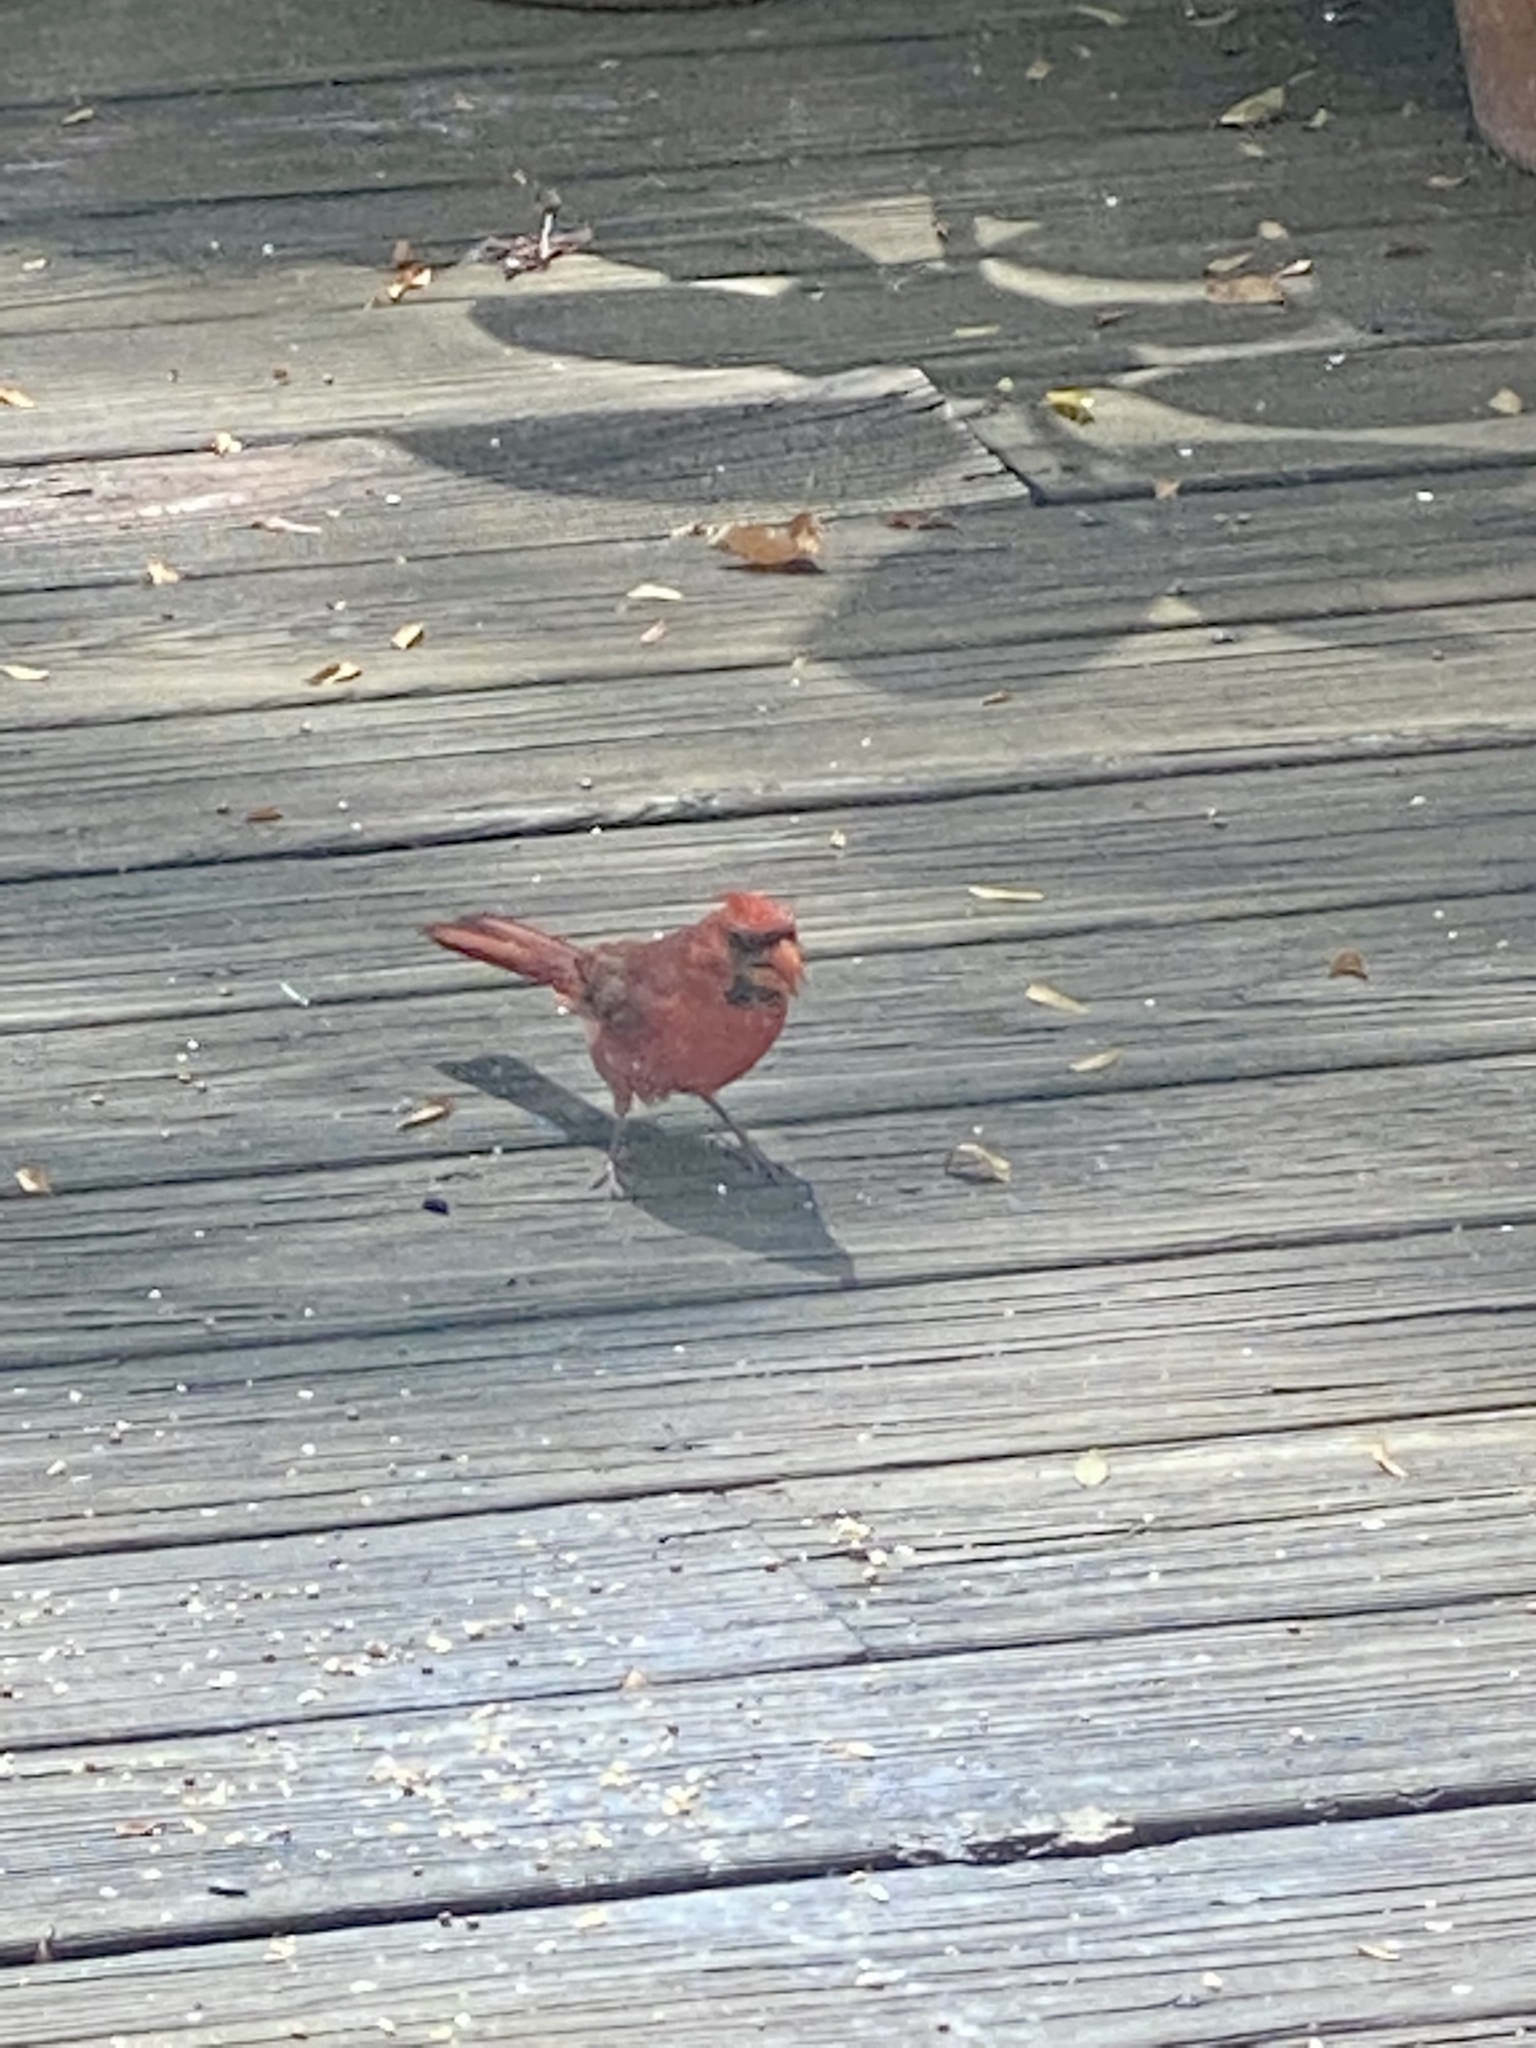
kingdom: Animalia
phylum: Chordata
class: Aves
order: Passeriformes
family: Cardinalidae
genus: Cardinalis
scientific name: Cardinalis cardinalis
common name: Northern cardinal
